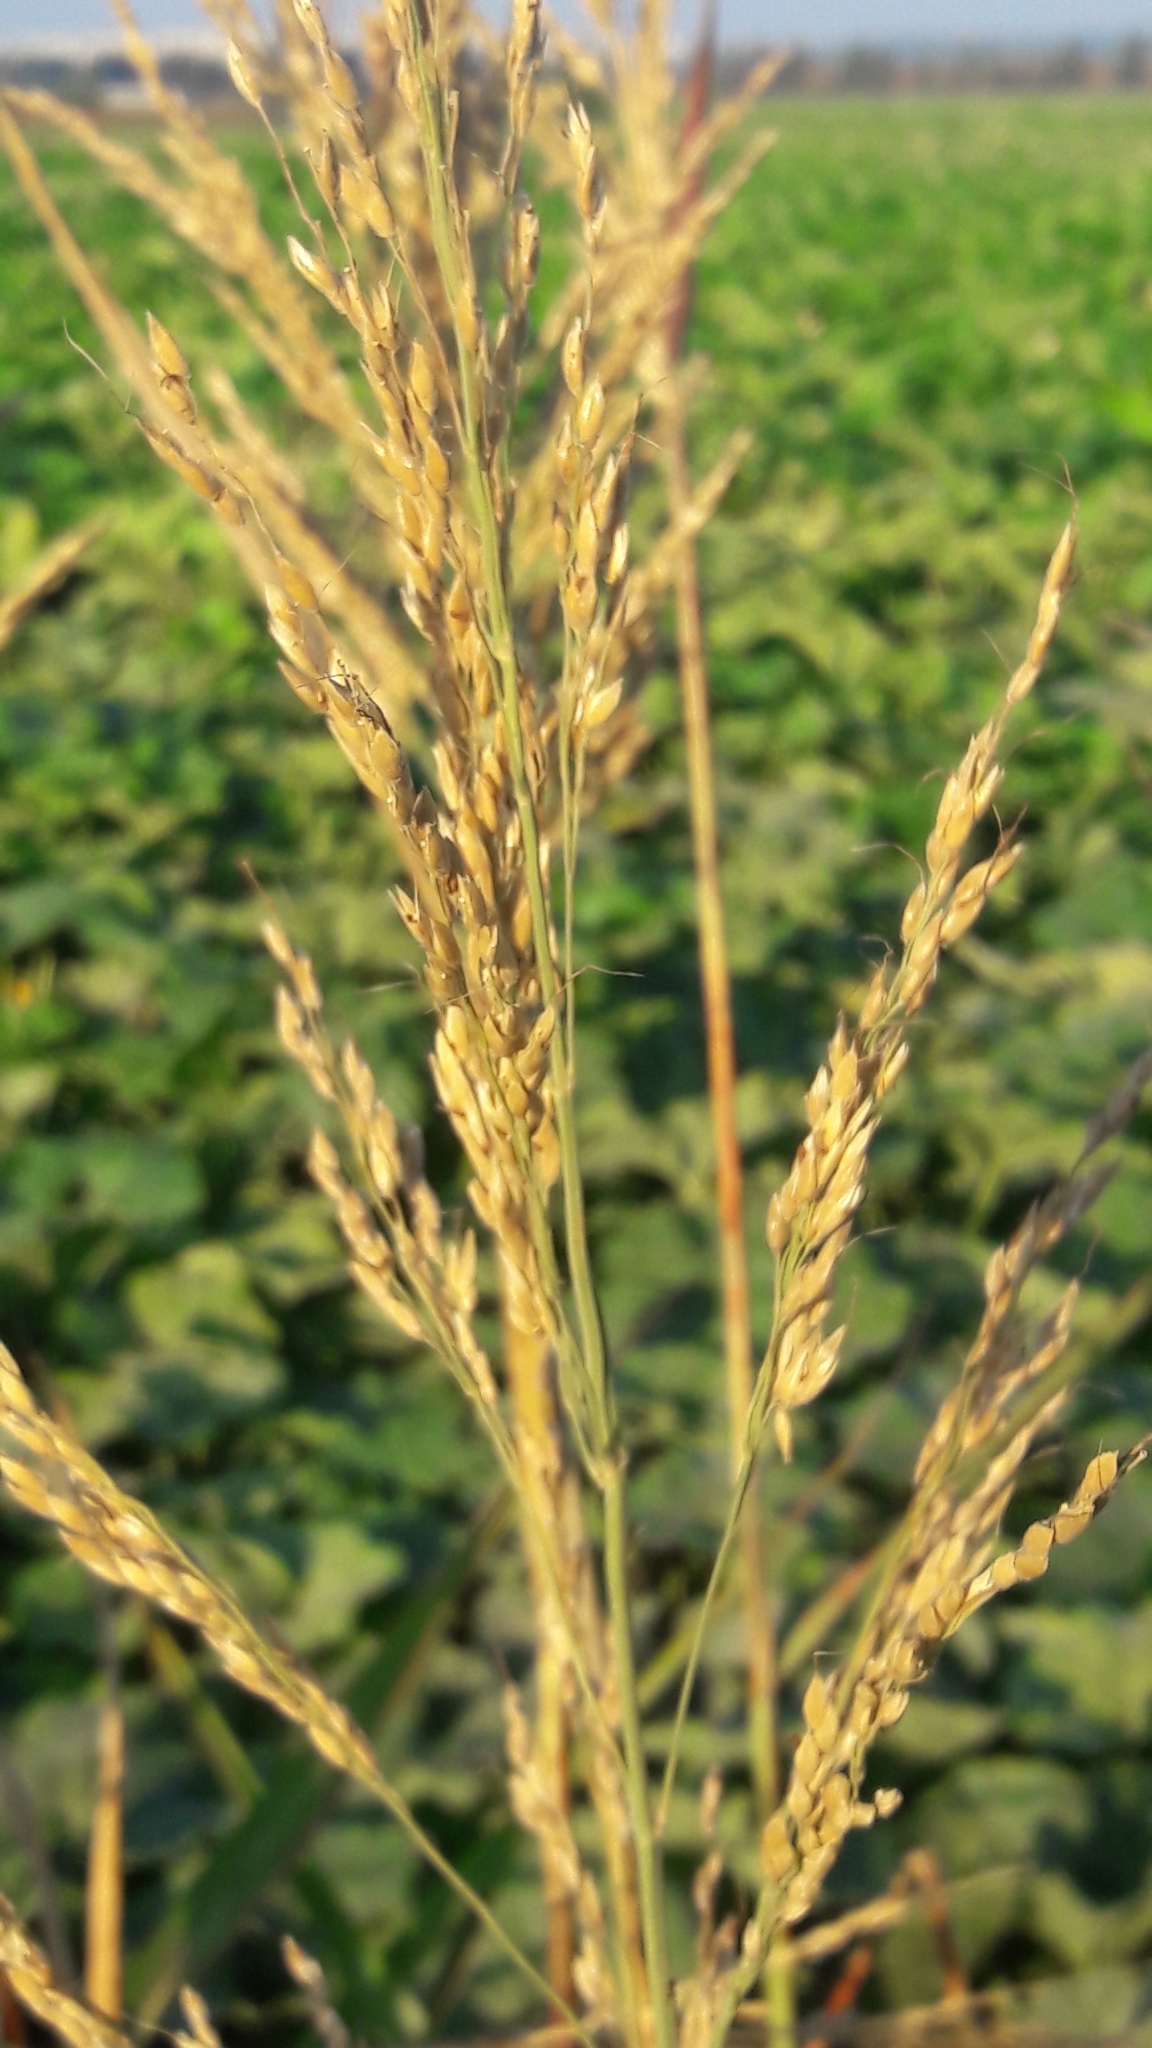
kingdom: Plantae
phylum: Tracheophyta
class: Liliopsida
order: Poales
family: Poaceae
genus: Sorghum
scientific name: Sorghum halepense
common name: Johnson-grass
